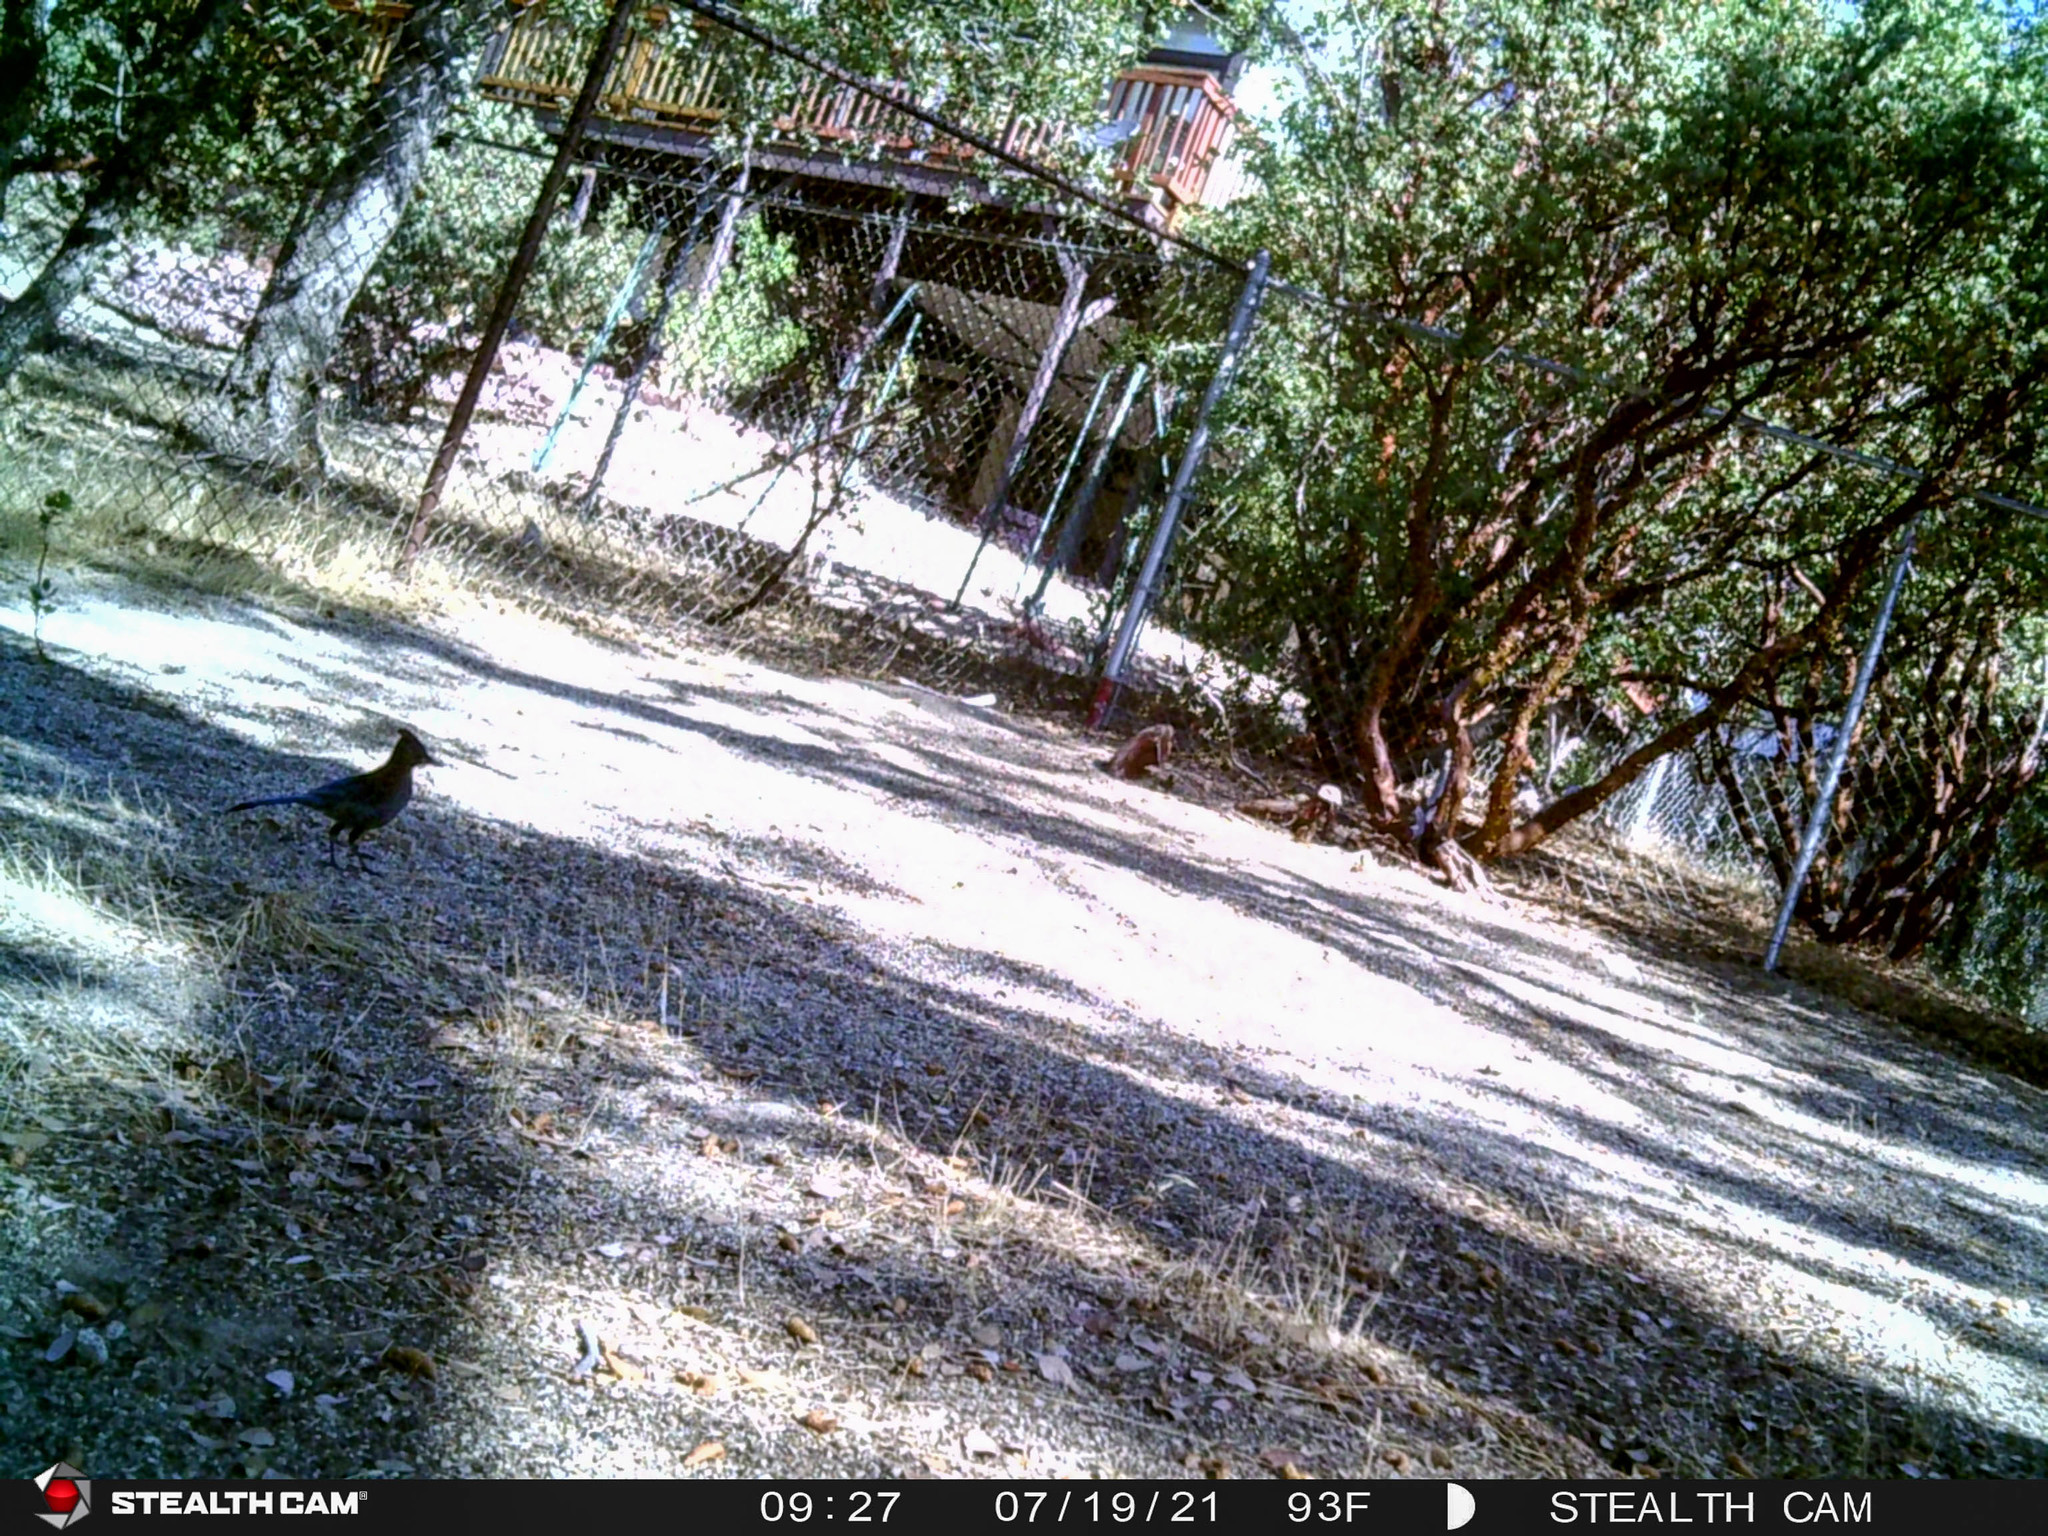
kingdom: Animalia
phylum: Chordata
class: Aves
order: Passeriformes
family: Corvidae
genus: Cyanocitta
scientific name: Cyanocitta stelleri
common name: Steller's jay
